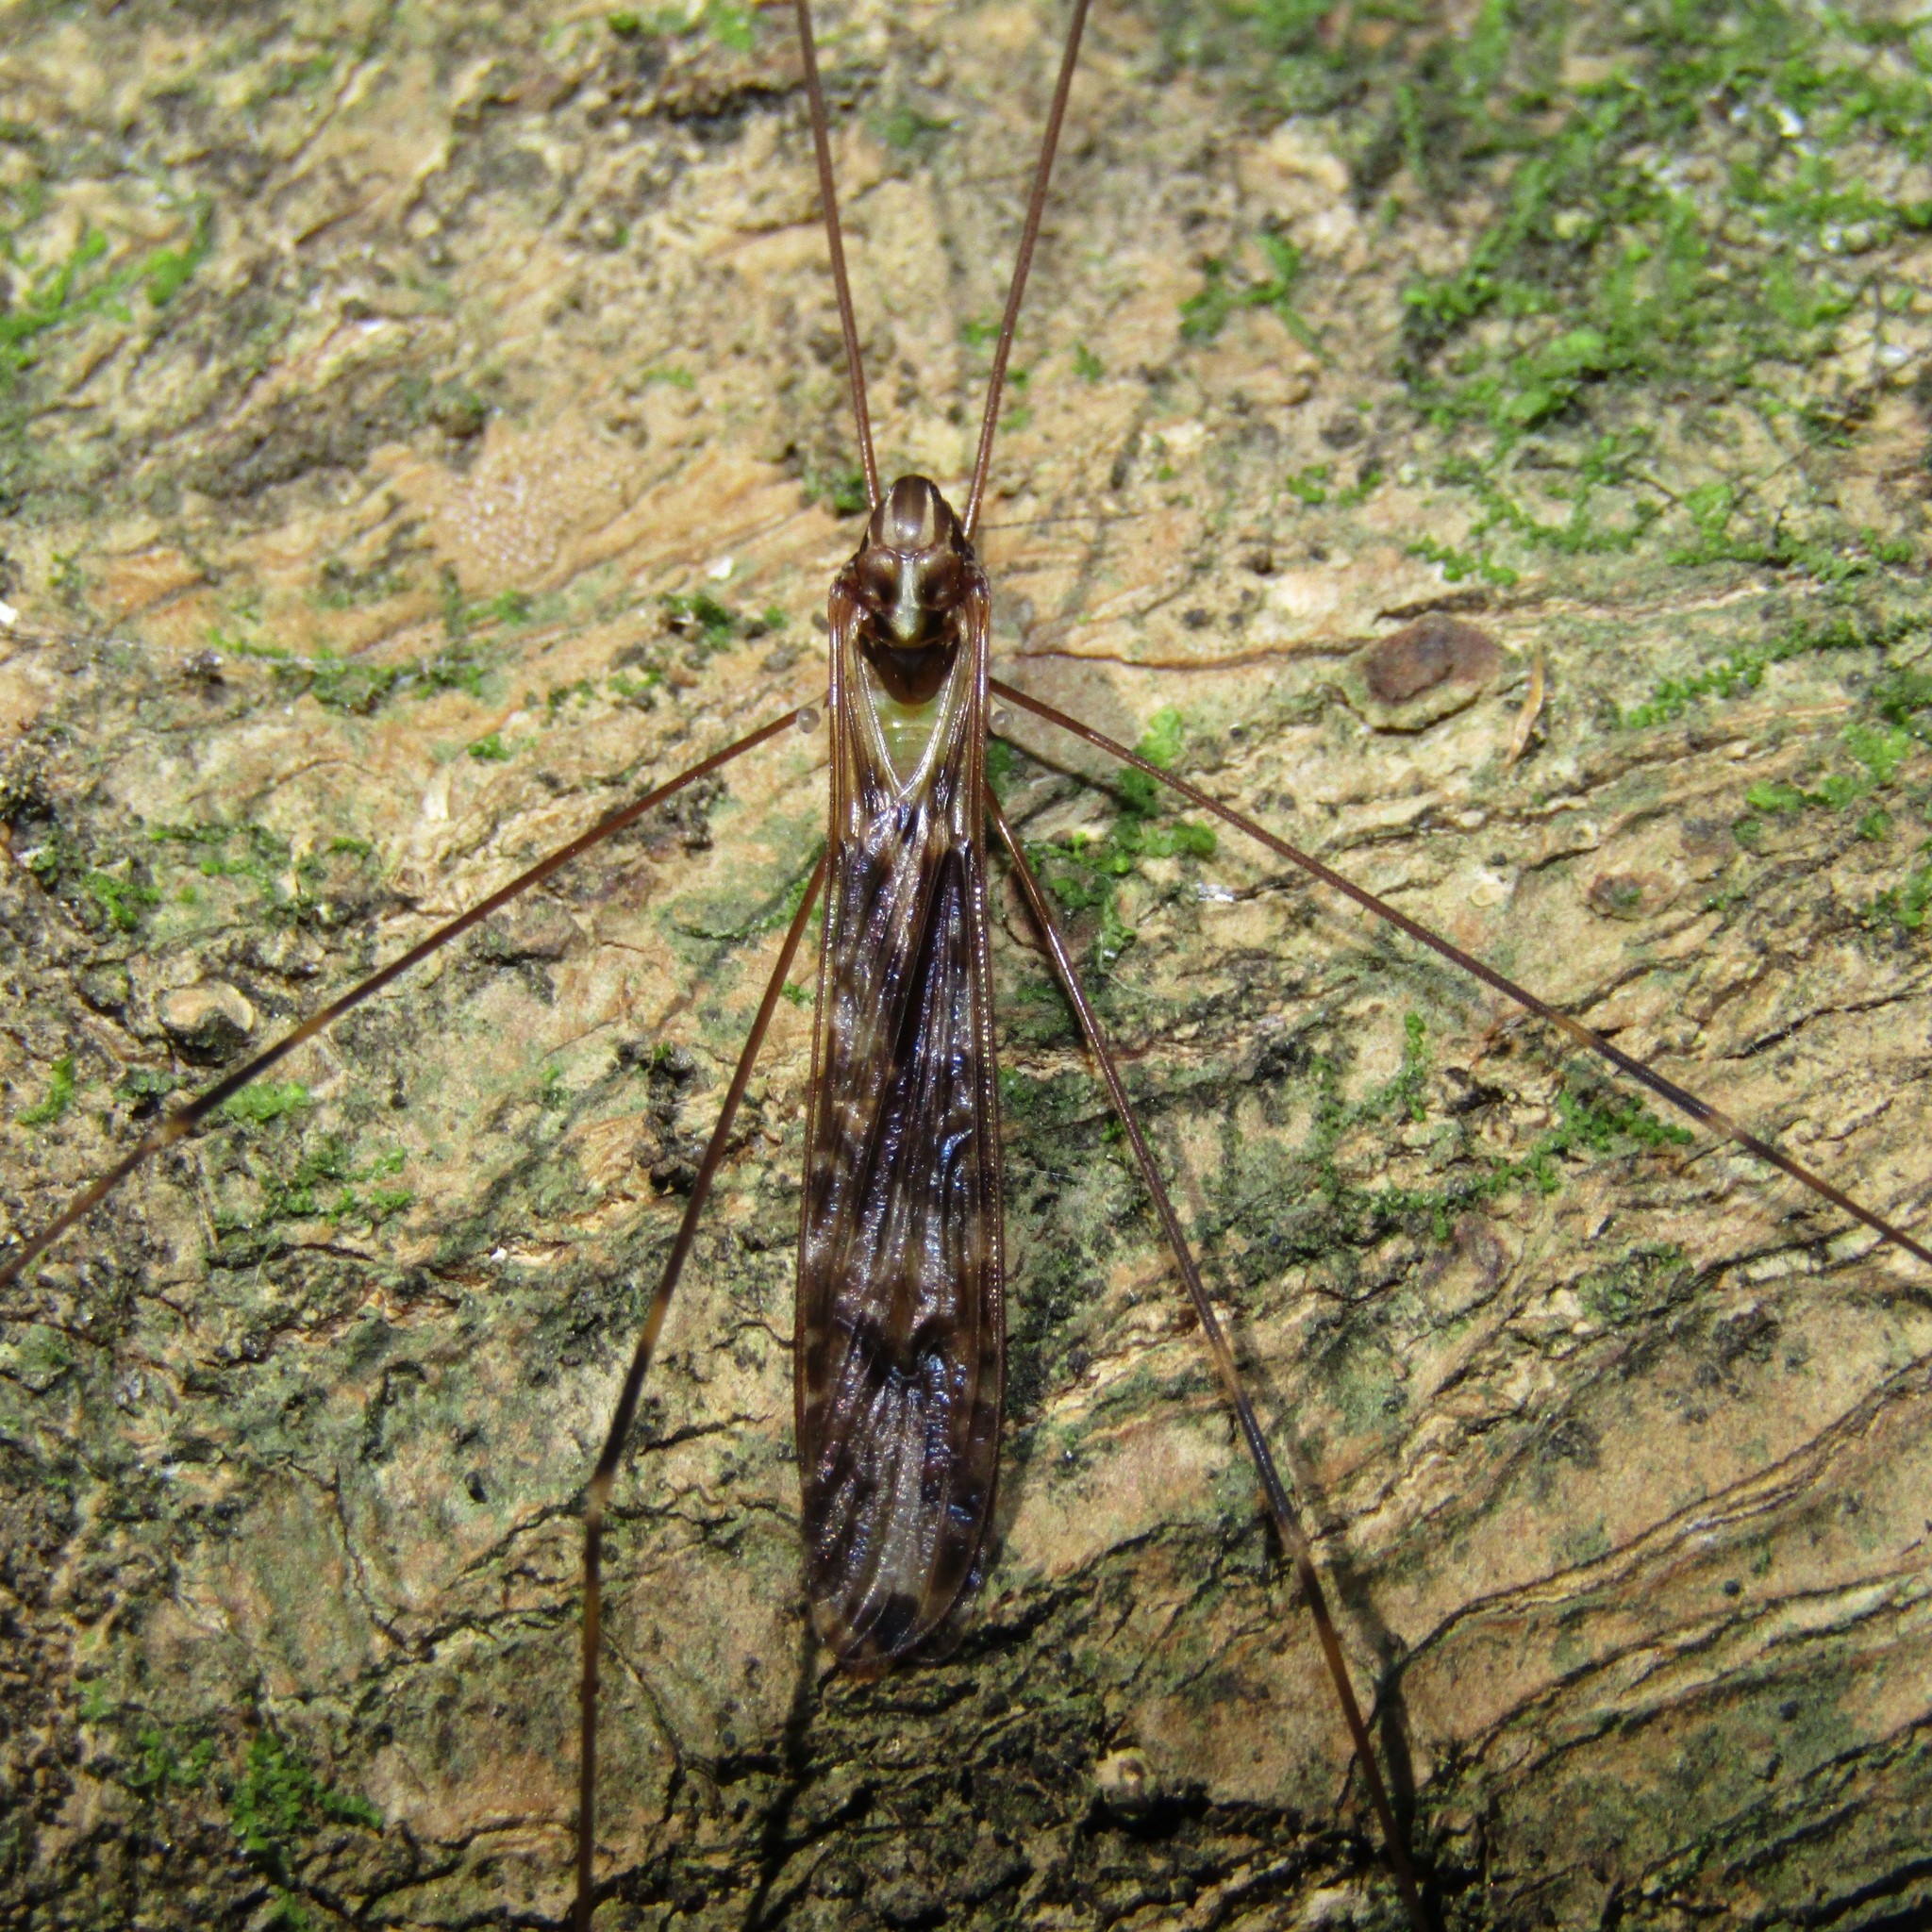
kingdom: Animalia
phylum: Arthropoda
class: Insecta
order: Diptera
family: Limoniidae
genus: Discobola
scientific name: Discobola dohrni
